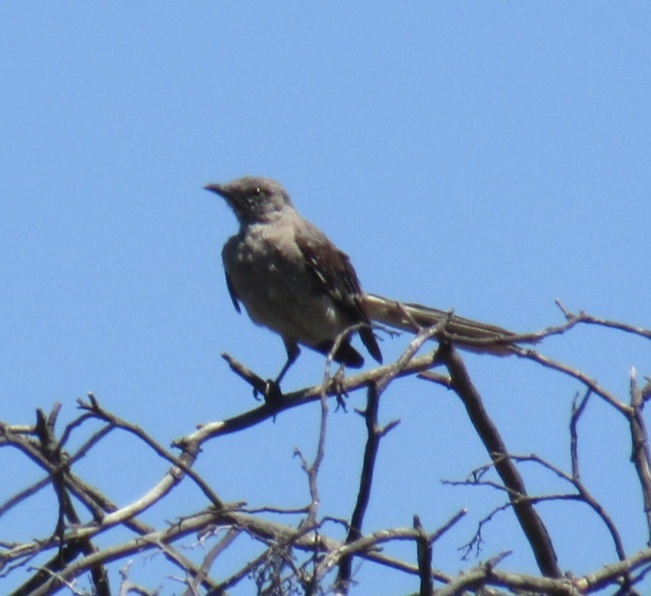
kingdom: Animalia
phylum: Chordata
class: Aves
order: Passeriformes
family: Mimidae
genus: Mimus
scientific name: Mimus polyglottos
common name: Northern mockingbird
